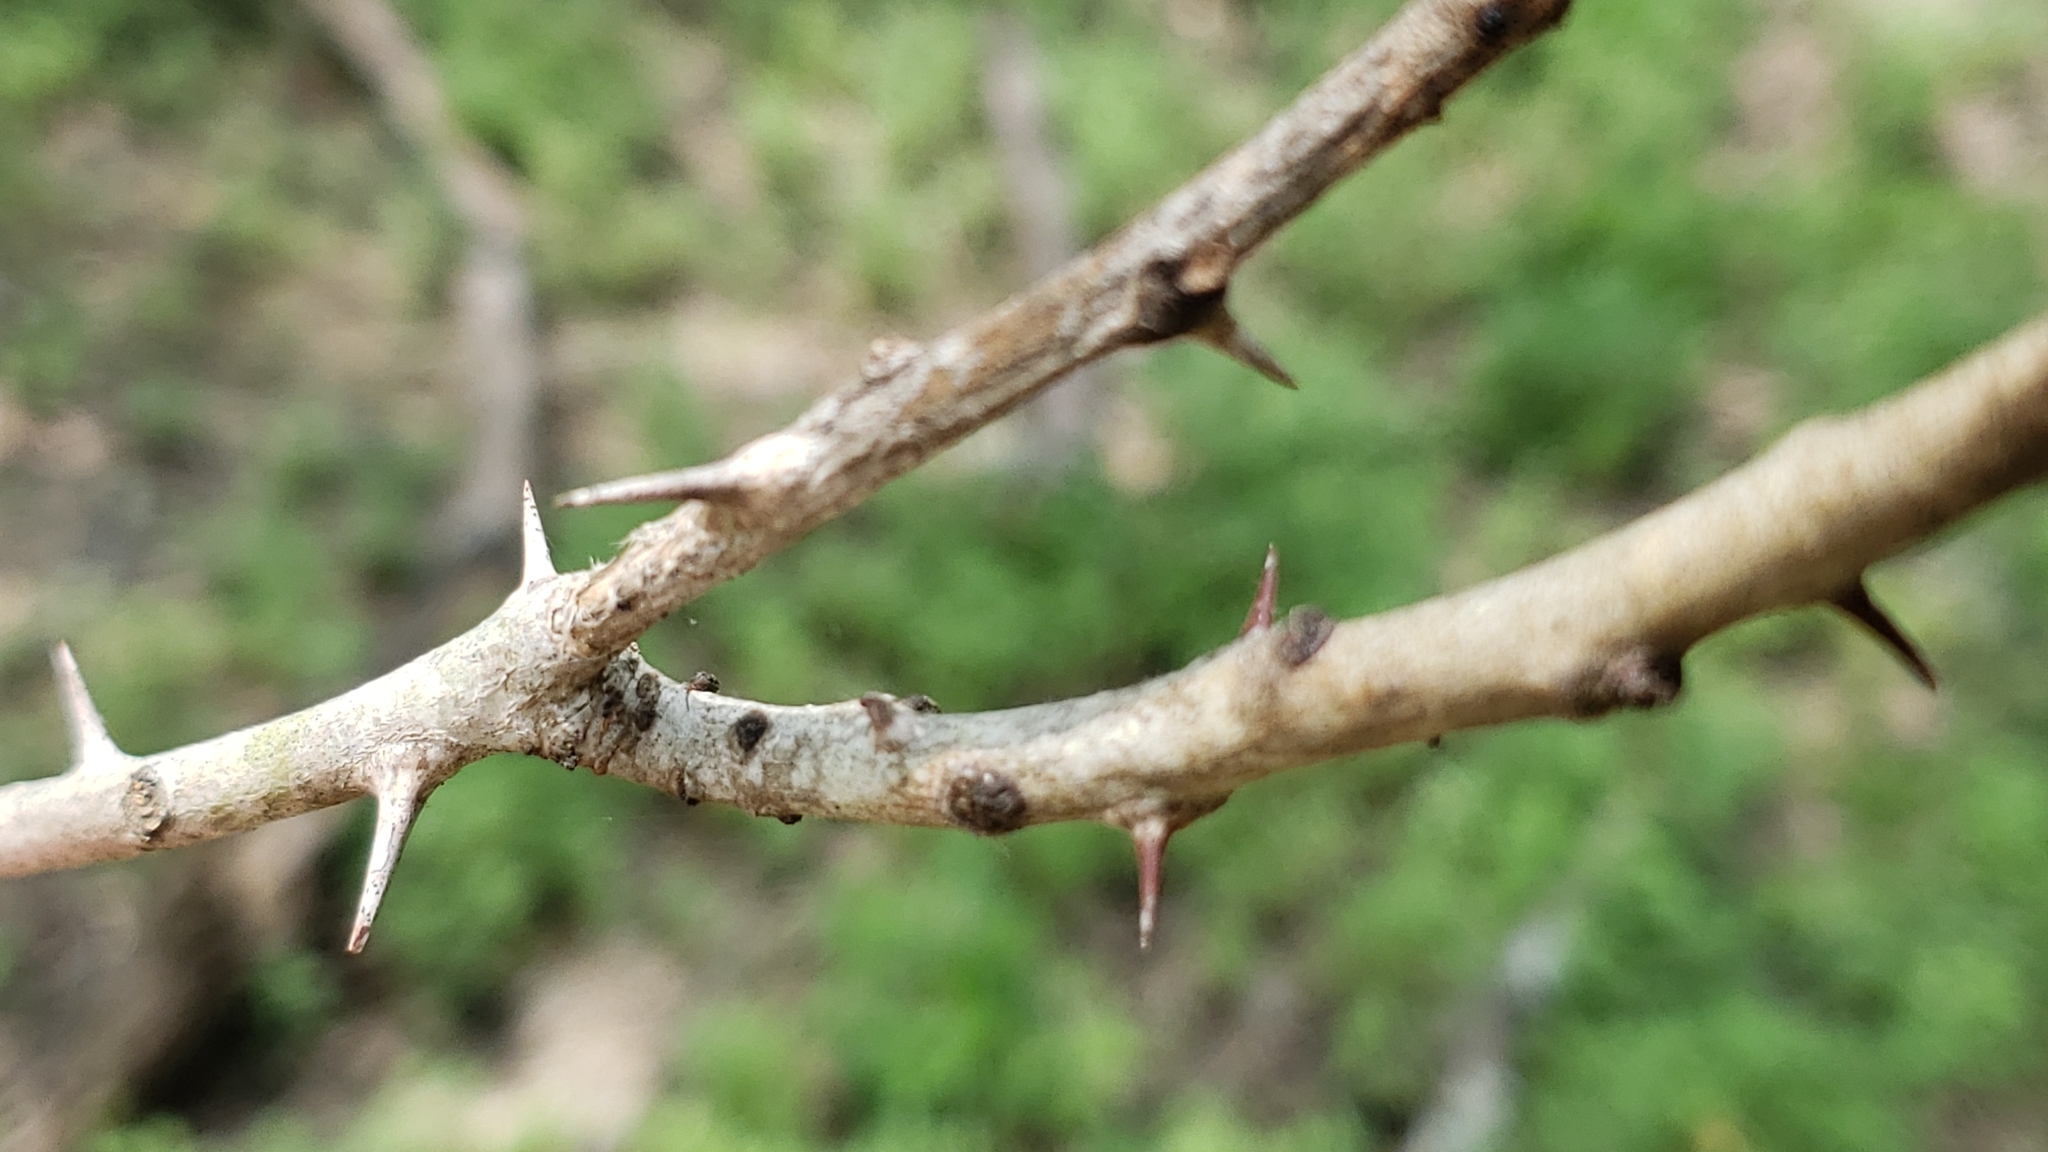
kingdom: Plantae
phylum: Tracheophyta
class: Magnoliopsida
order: Sapindales
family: Rutaceae
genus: Zanthoxylum
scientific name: Zanthoxylum clava-herculis
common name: Hercules'-club
